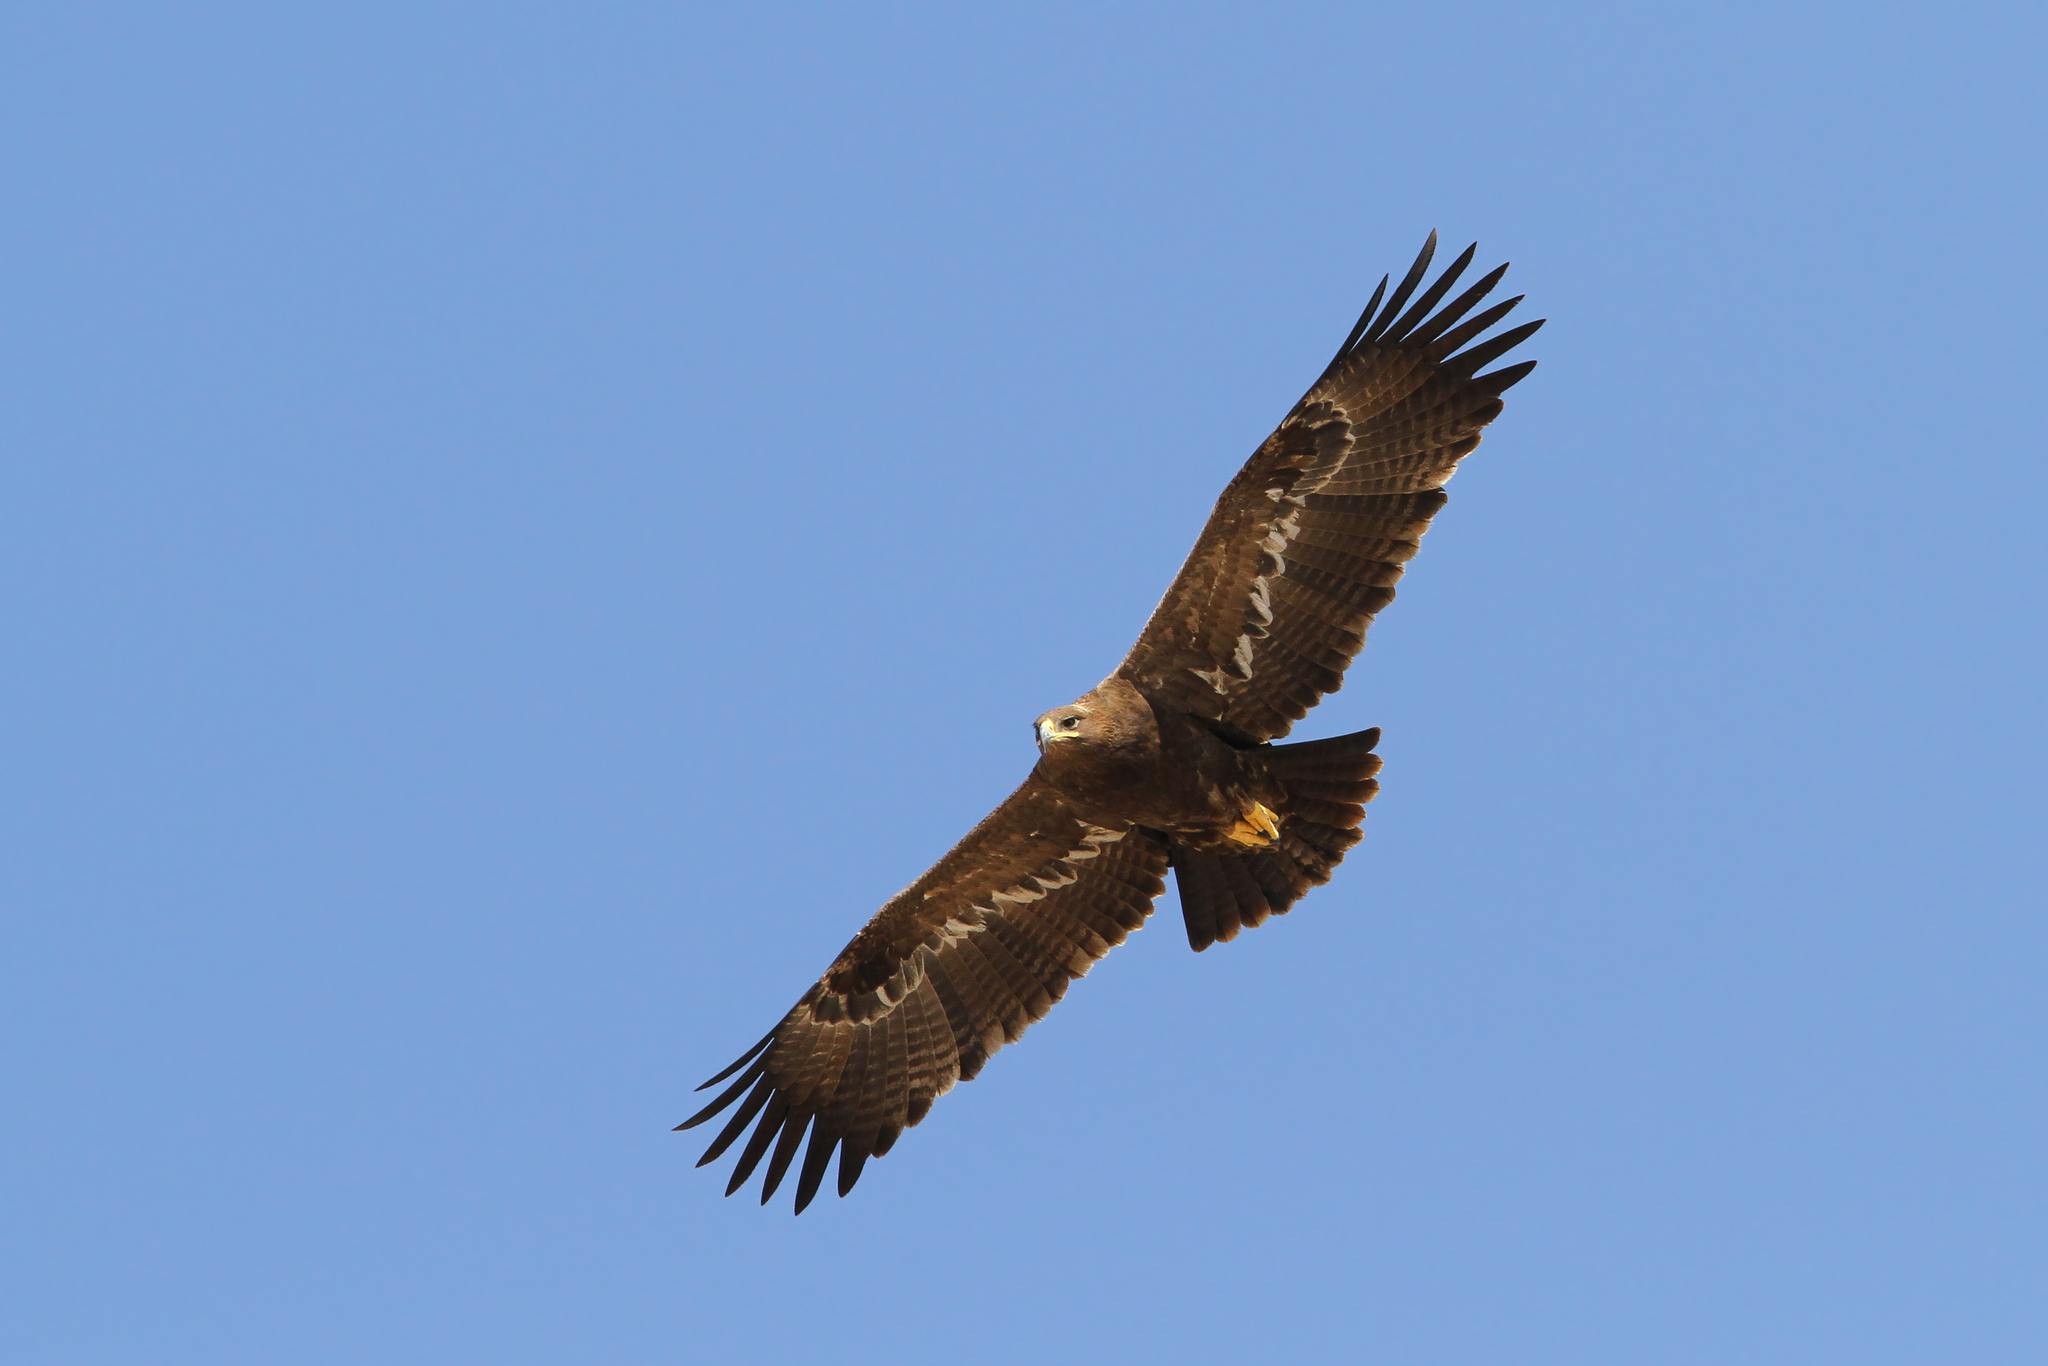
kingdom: Animalia
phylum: Chordata
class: Aves
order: Accipitriformes
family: Accipitridae
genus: Aquila
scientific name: Aquila nipalensis
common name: Steppe eagle
